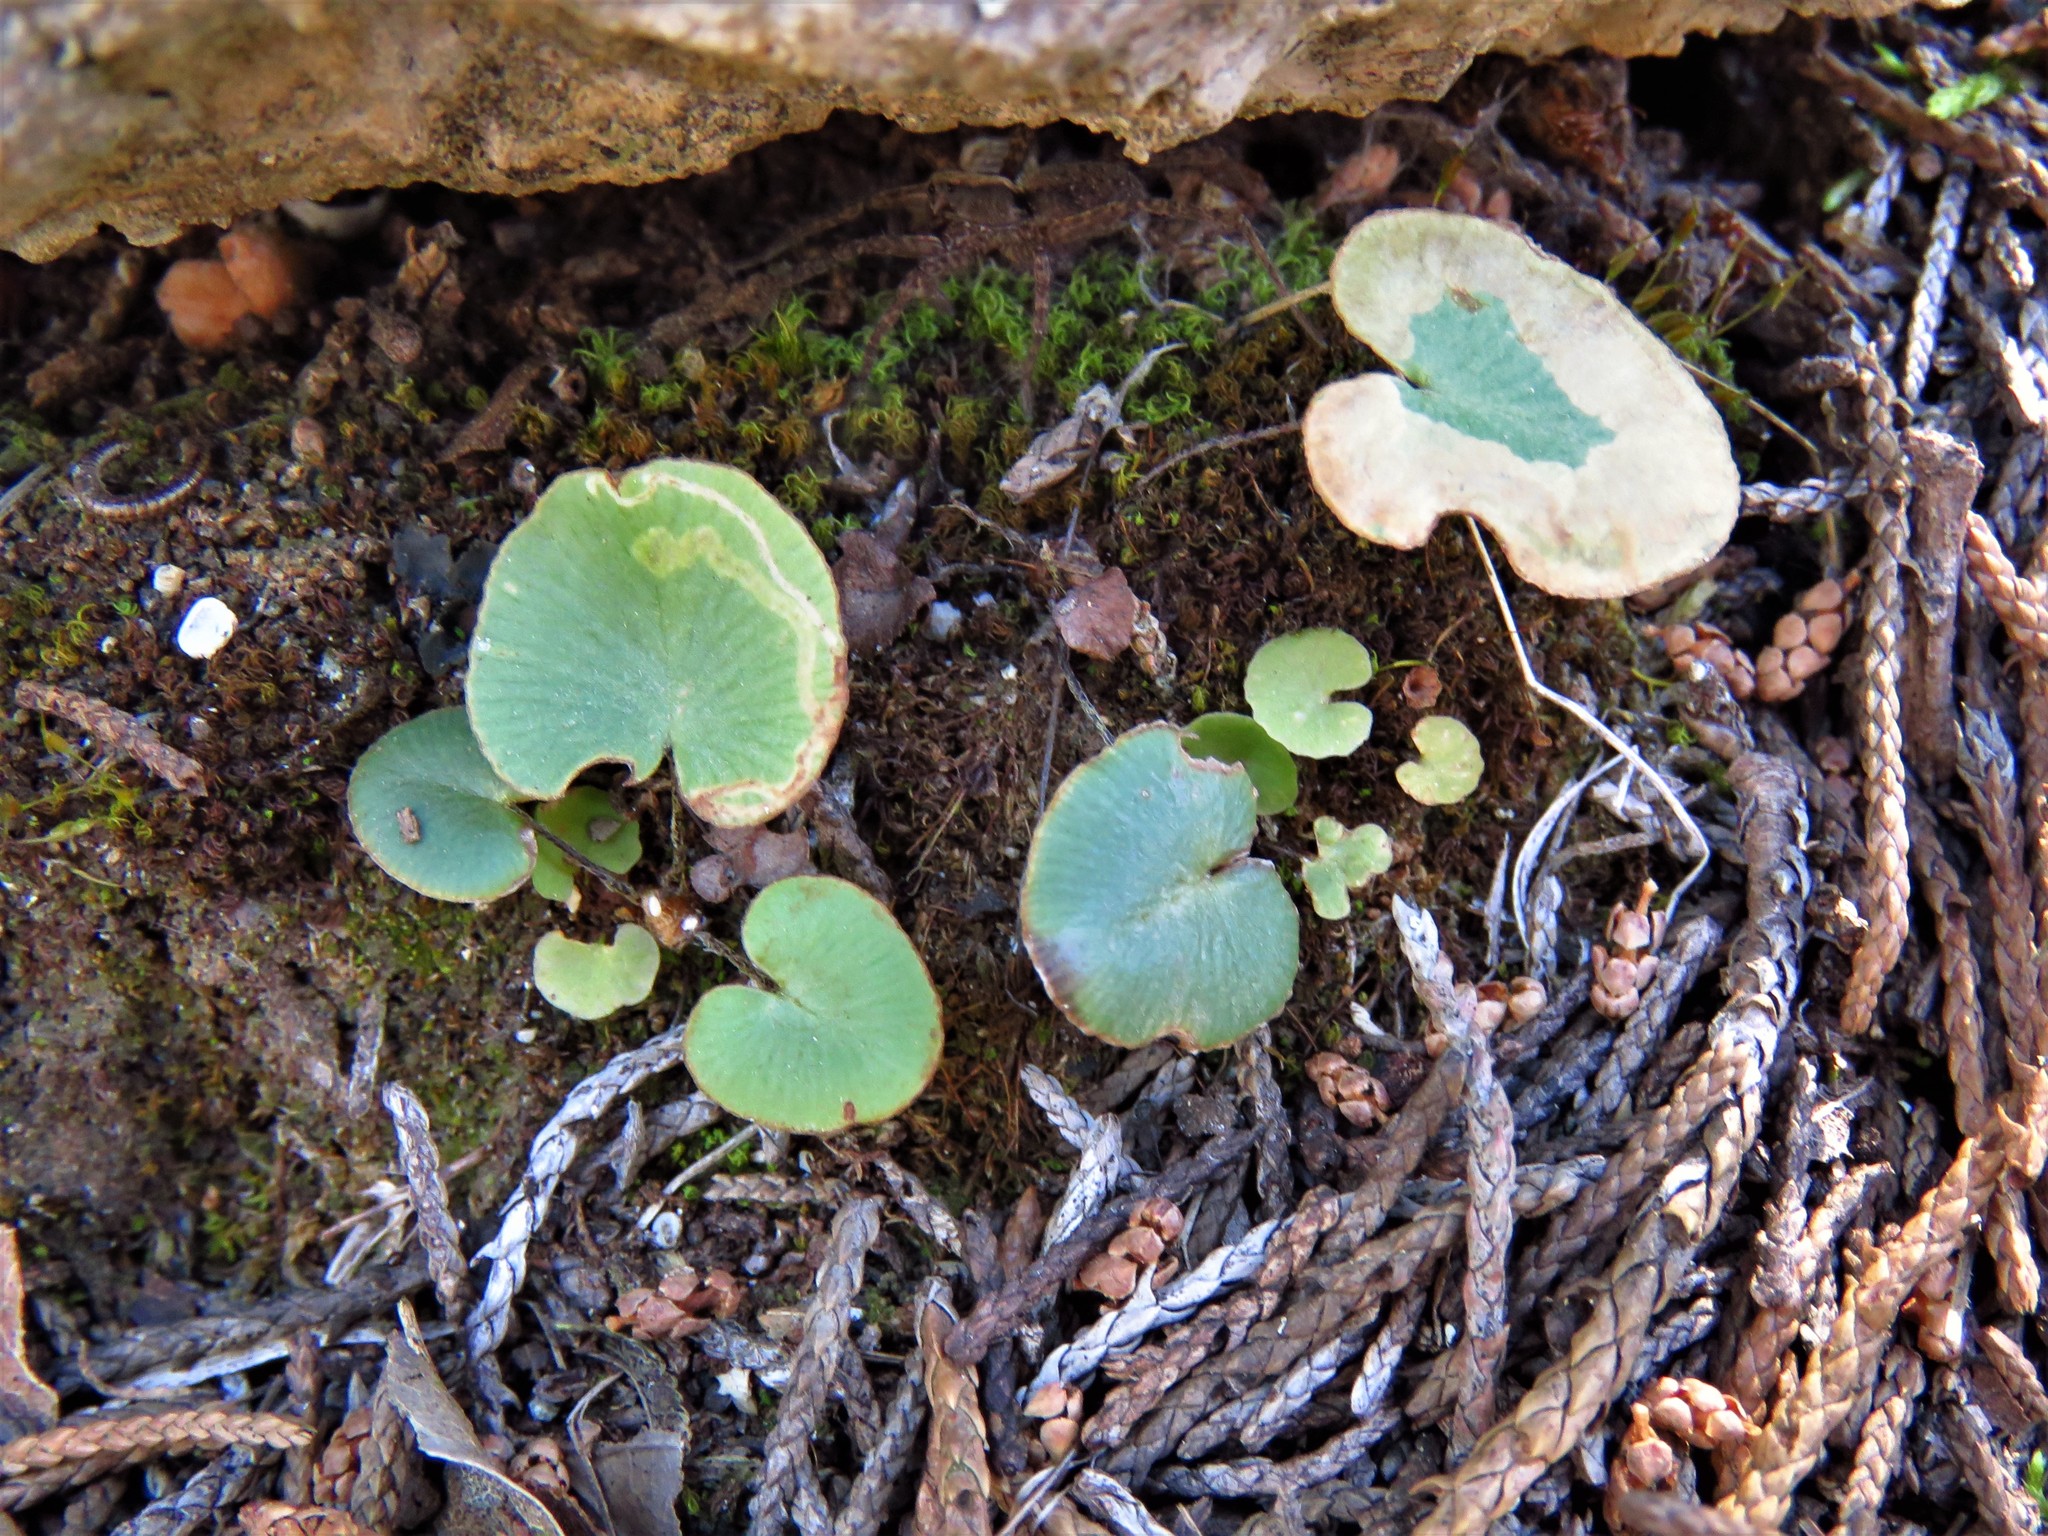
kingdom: Plantae
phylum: Tracheophyta
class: Polypodiopsida
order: Polypodiales
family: Pteridaceae
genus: Pellaea
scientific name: Pellaea atropurpurea
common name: Hairy cliffbrake
